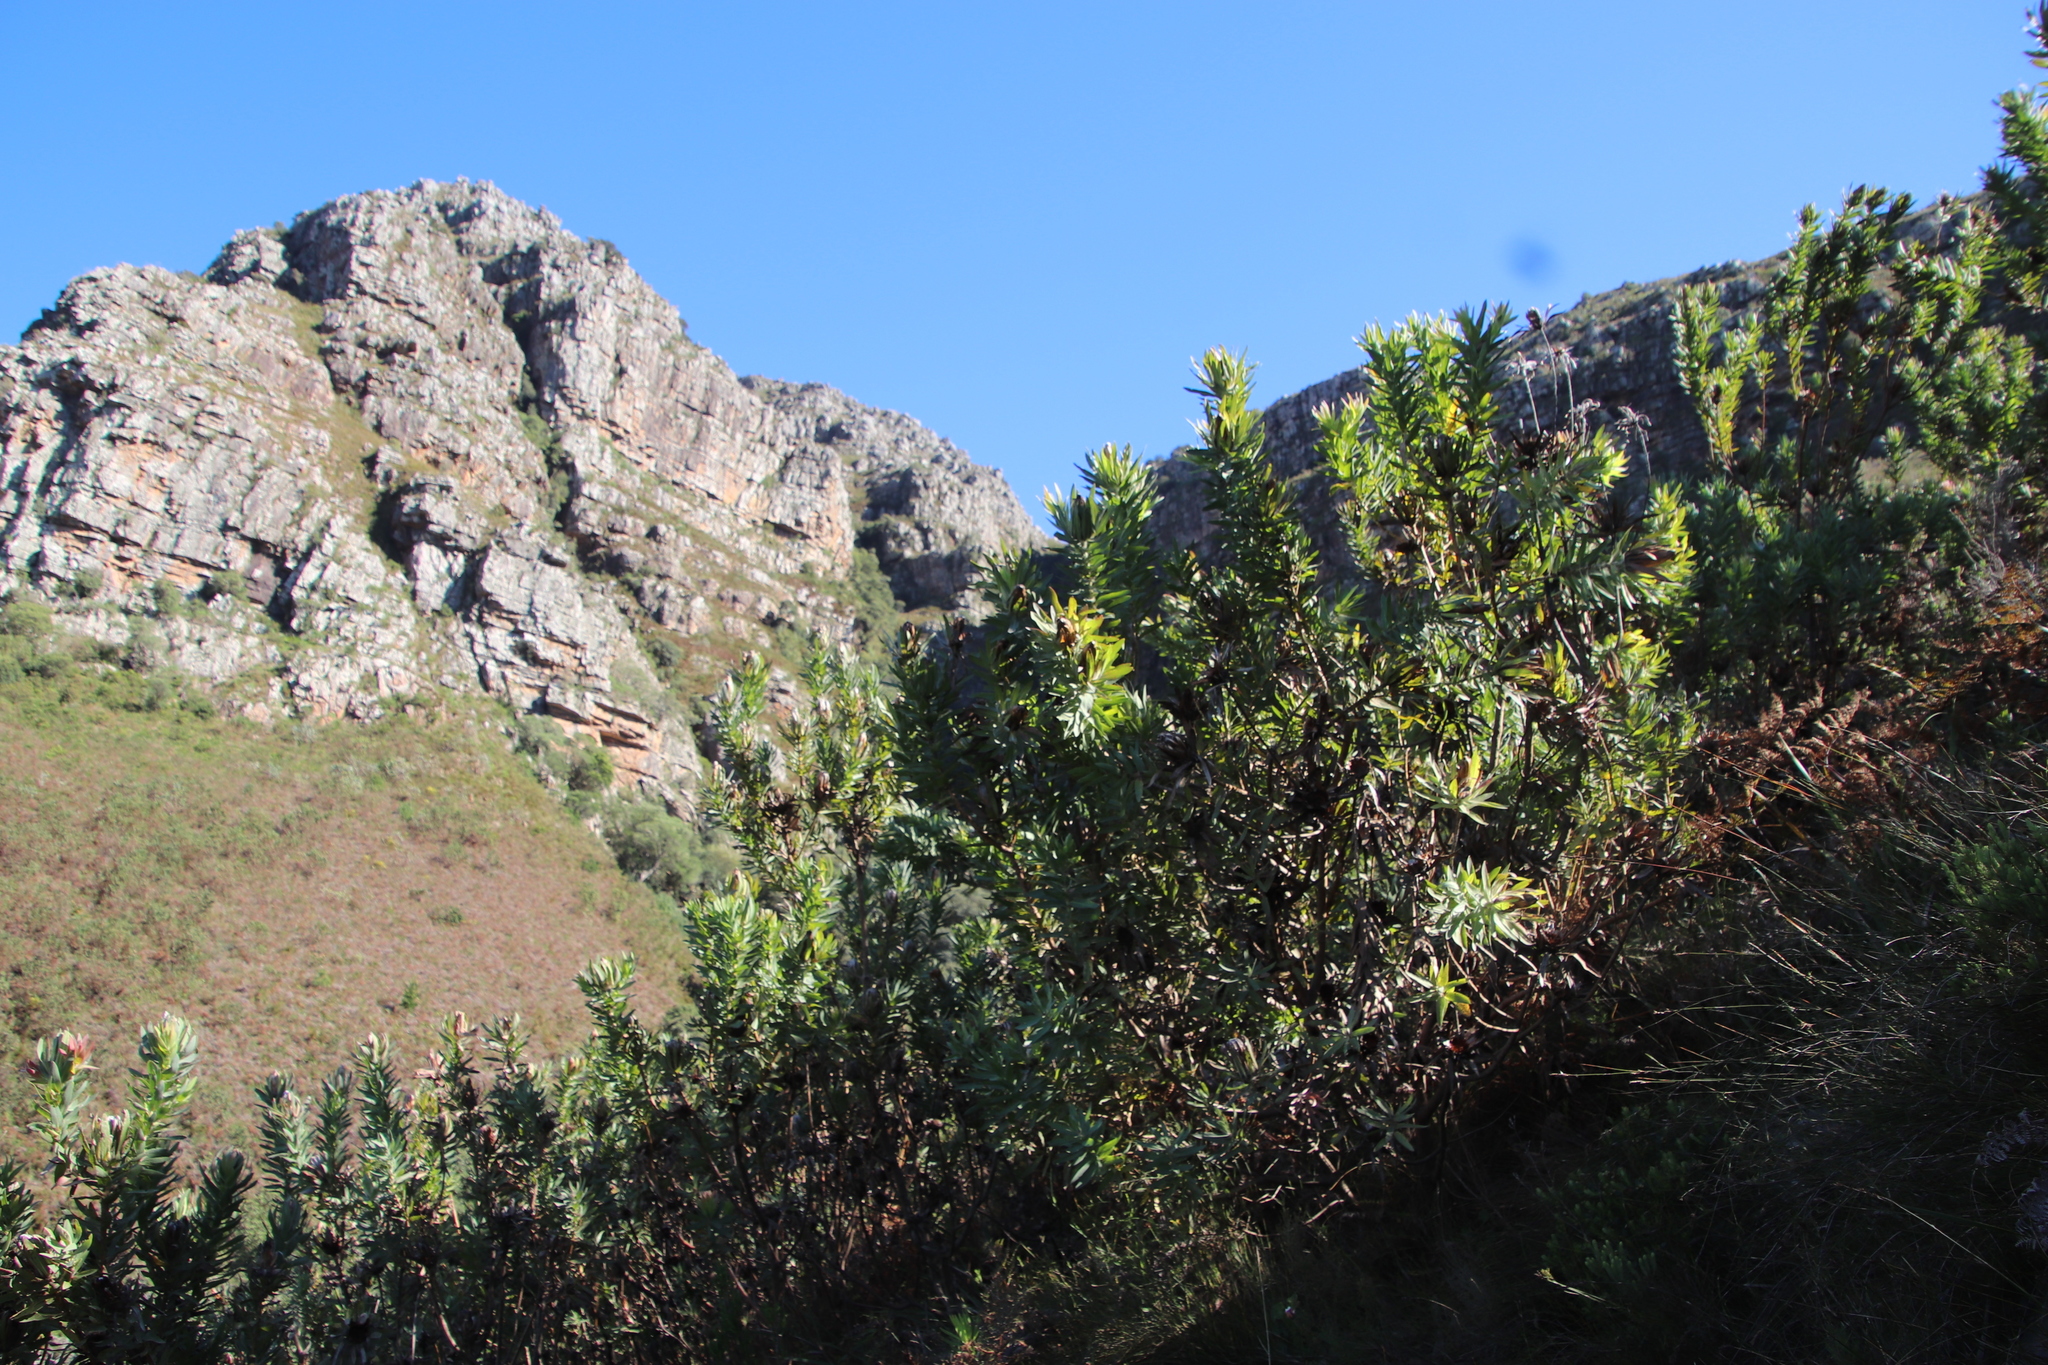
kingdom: Plantae
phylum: Tracheophyta
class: Magnoliopsida
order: Proteales
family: Proteaceae
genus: Protea
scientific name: Protea coronata
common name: Green sugarbush
